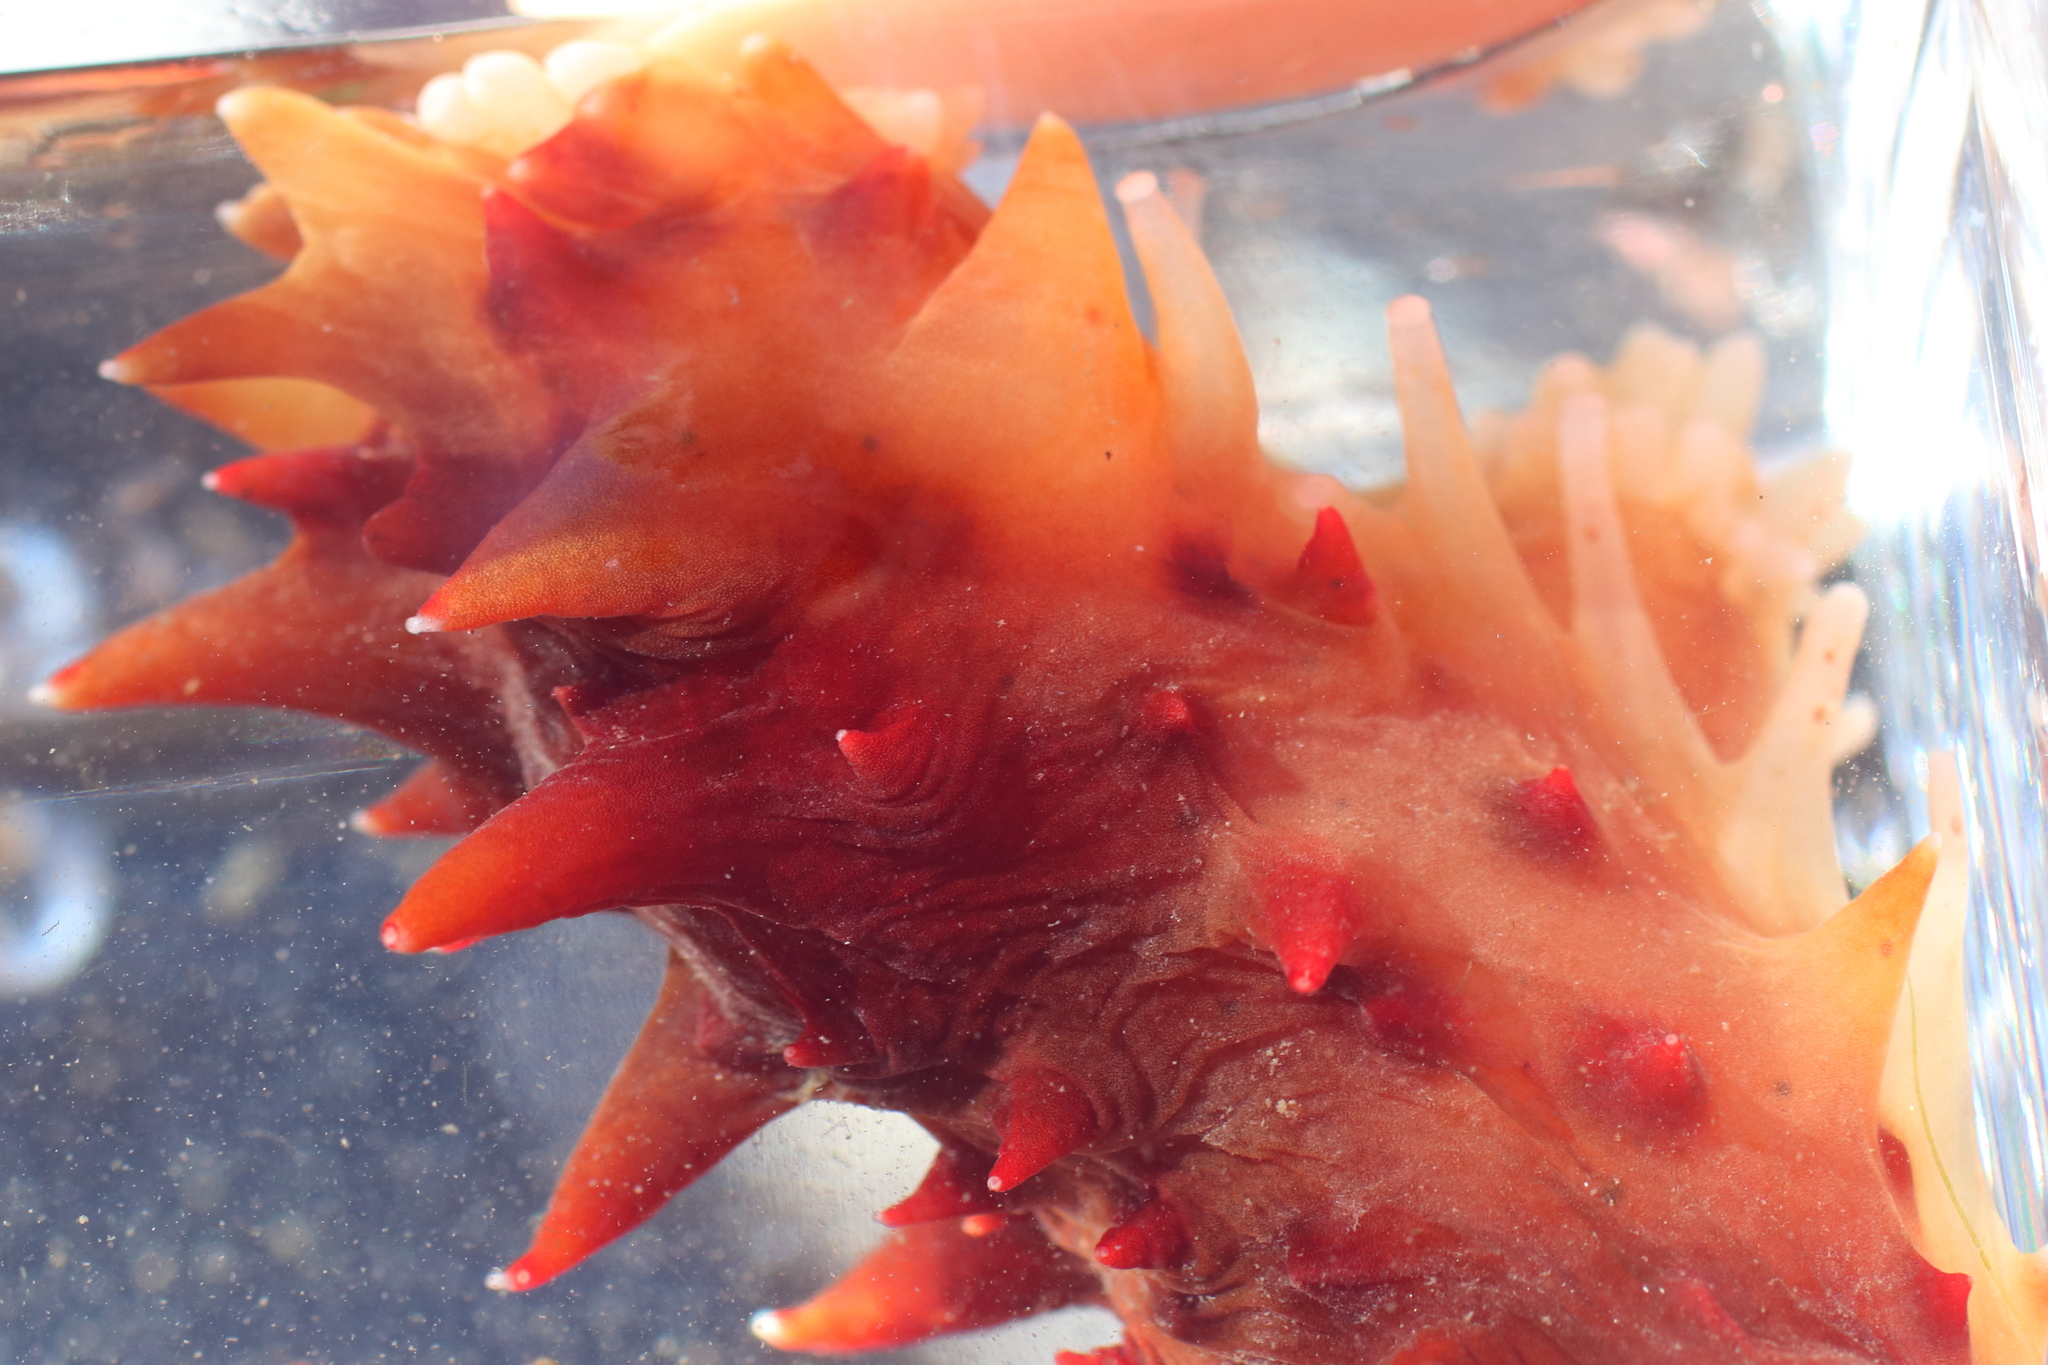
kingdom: Animalia
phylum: Echinodermata
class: Holothuroidea
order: Synallactida
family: Stichopodidae
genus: Apostichopus
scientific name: Apostichopus californicus
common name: California sea cucumber
